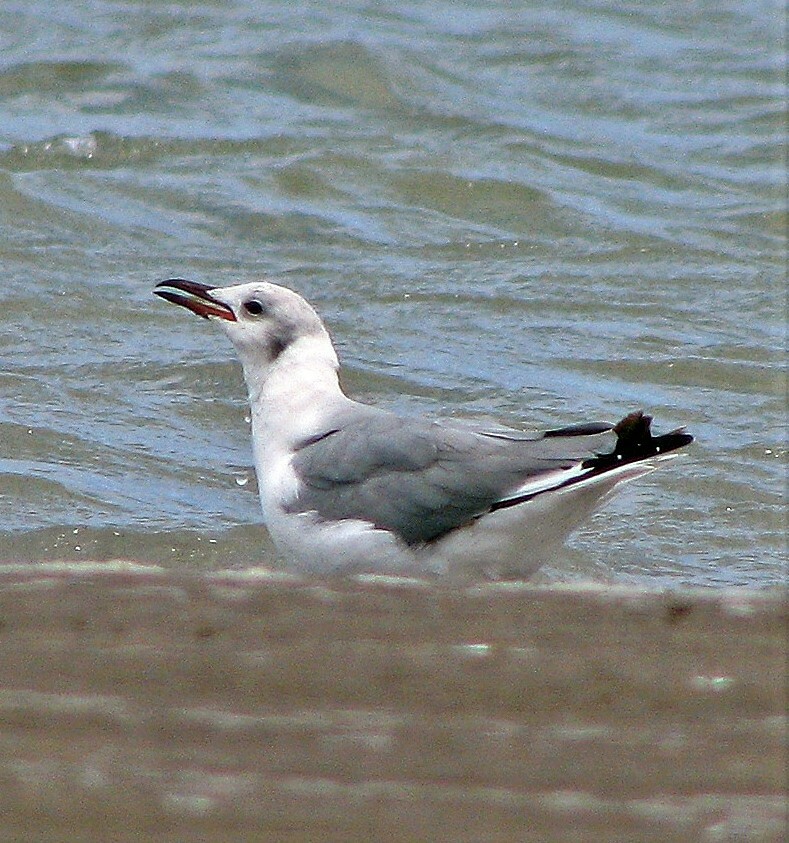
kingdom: Animalia
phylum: Chordata
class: Aves
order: Charadriiformes
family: Laridae
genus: Chroicocephalus
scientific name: Chroicocephalus cirrocephalus
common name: Grey-headed gull
